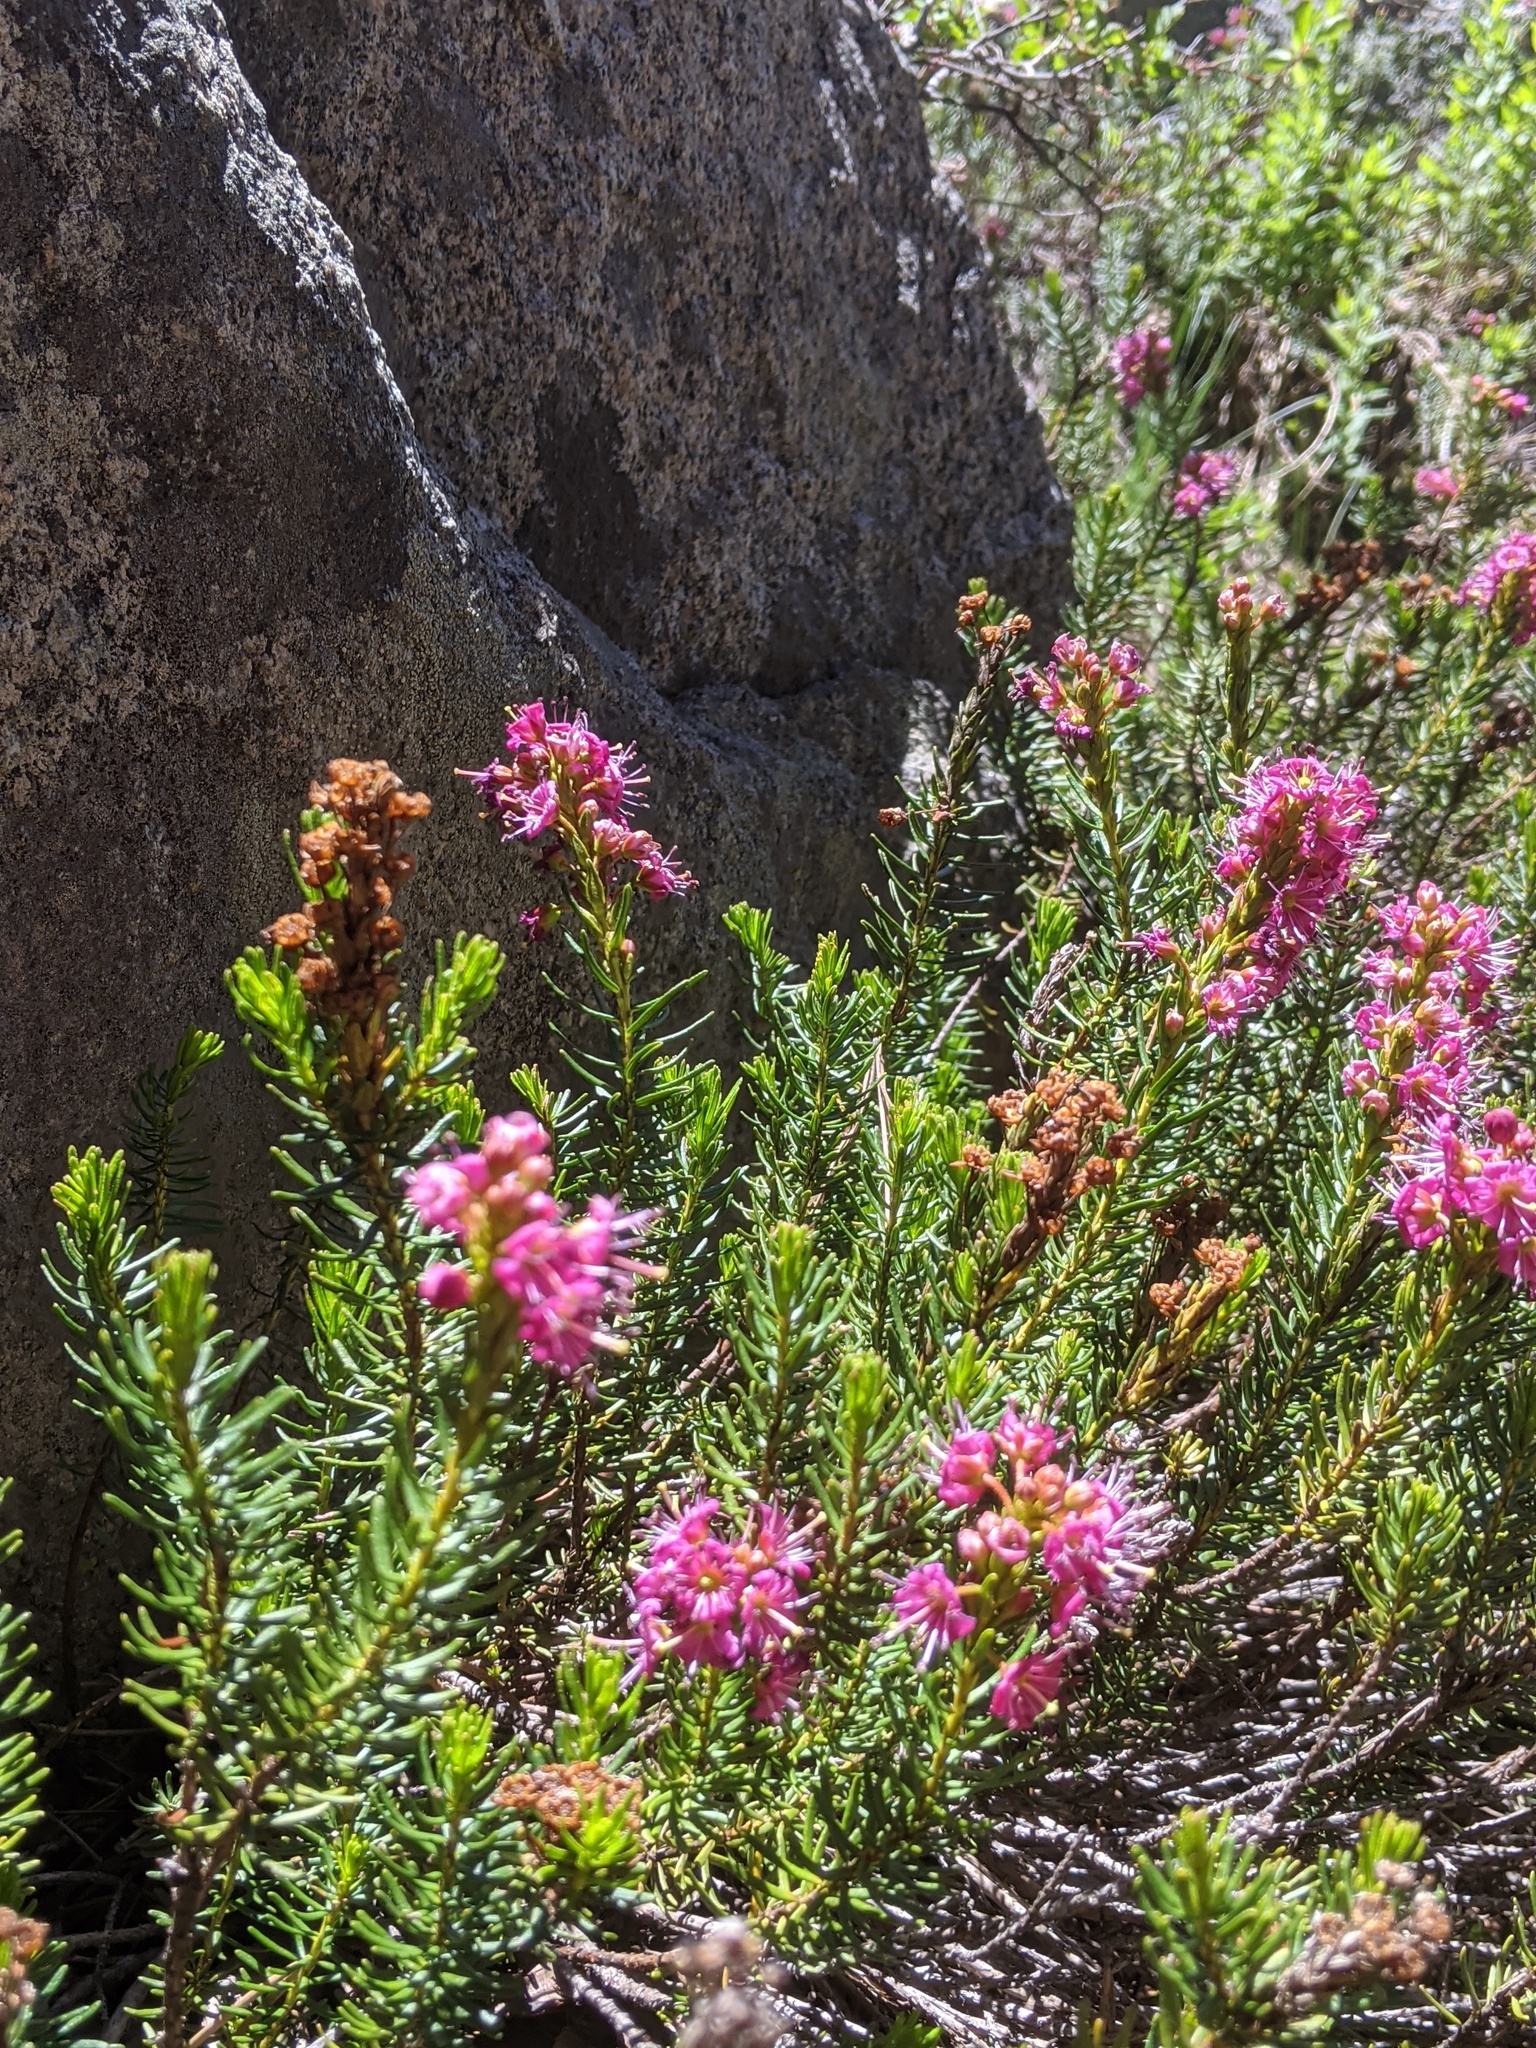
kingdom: Plantae
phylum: Tracheophyta
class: Magnoliopsida
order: Ericales
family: Ericaceae
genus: Phyllodoce
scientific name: Phyllodoce breweri
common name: Brewer's mountain-heather
